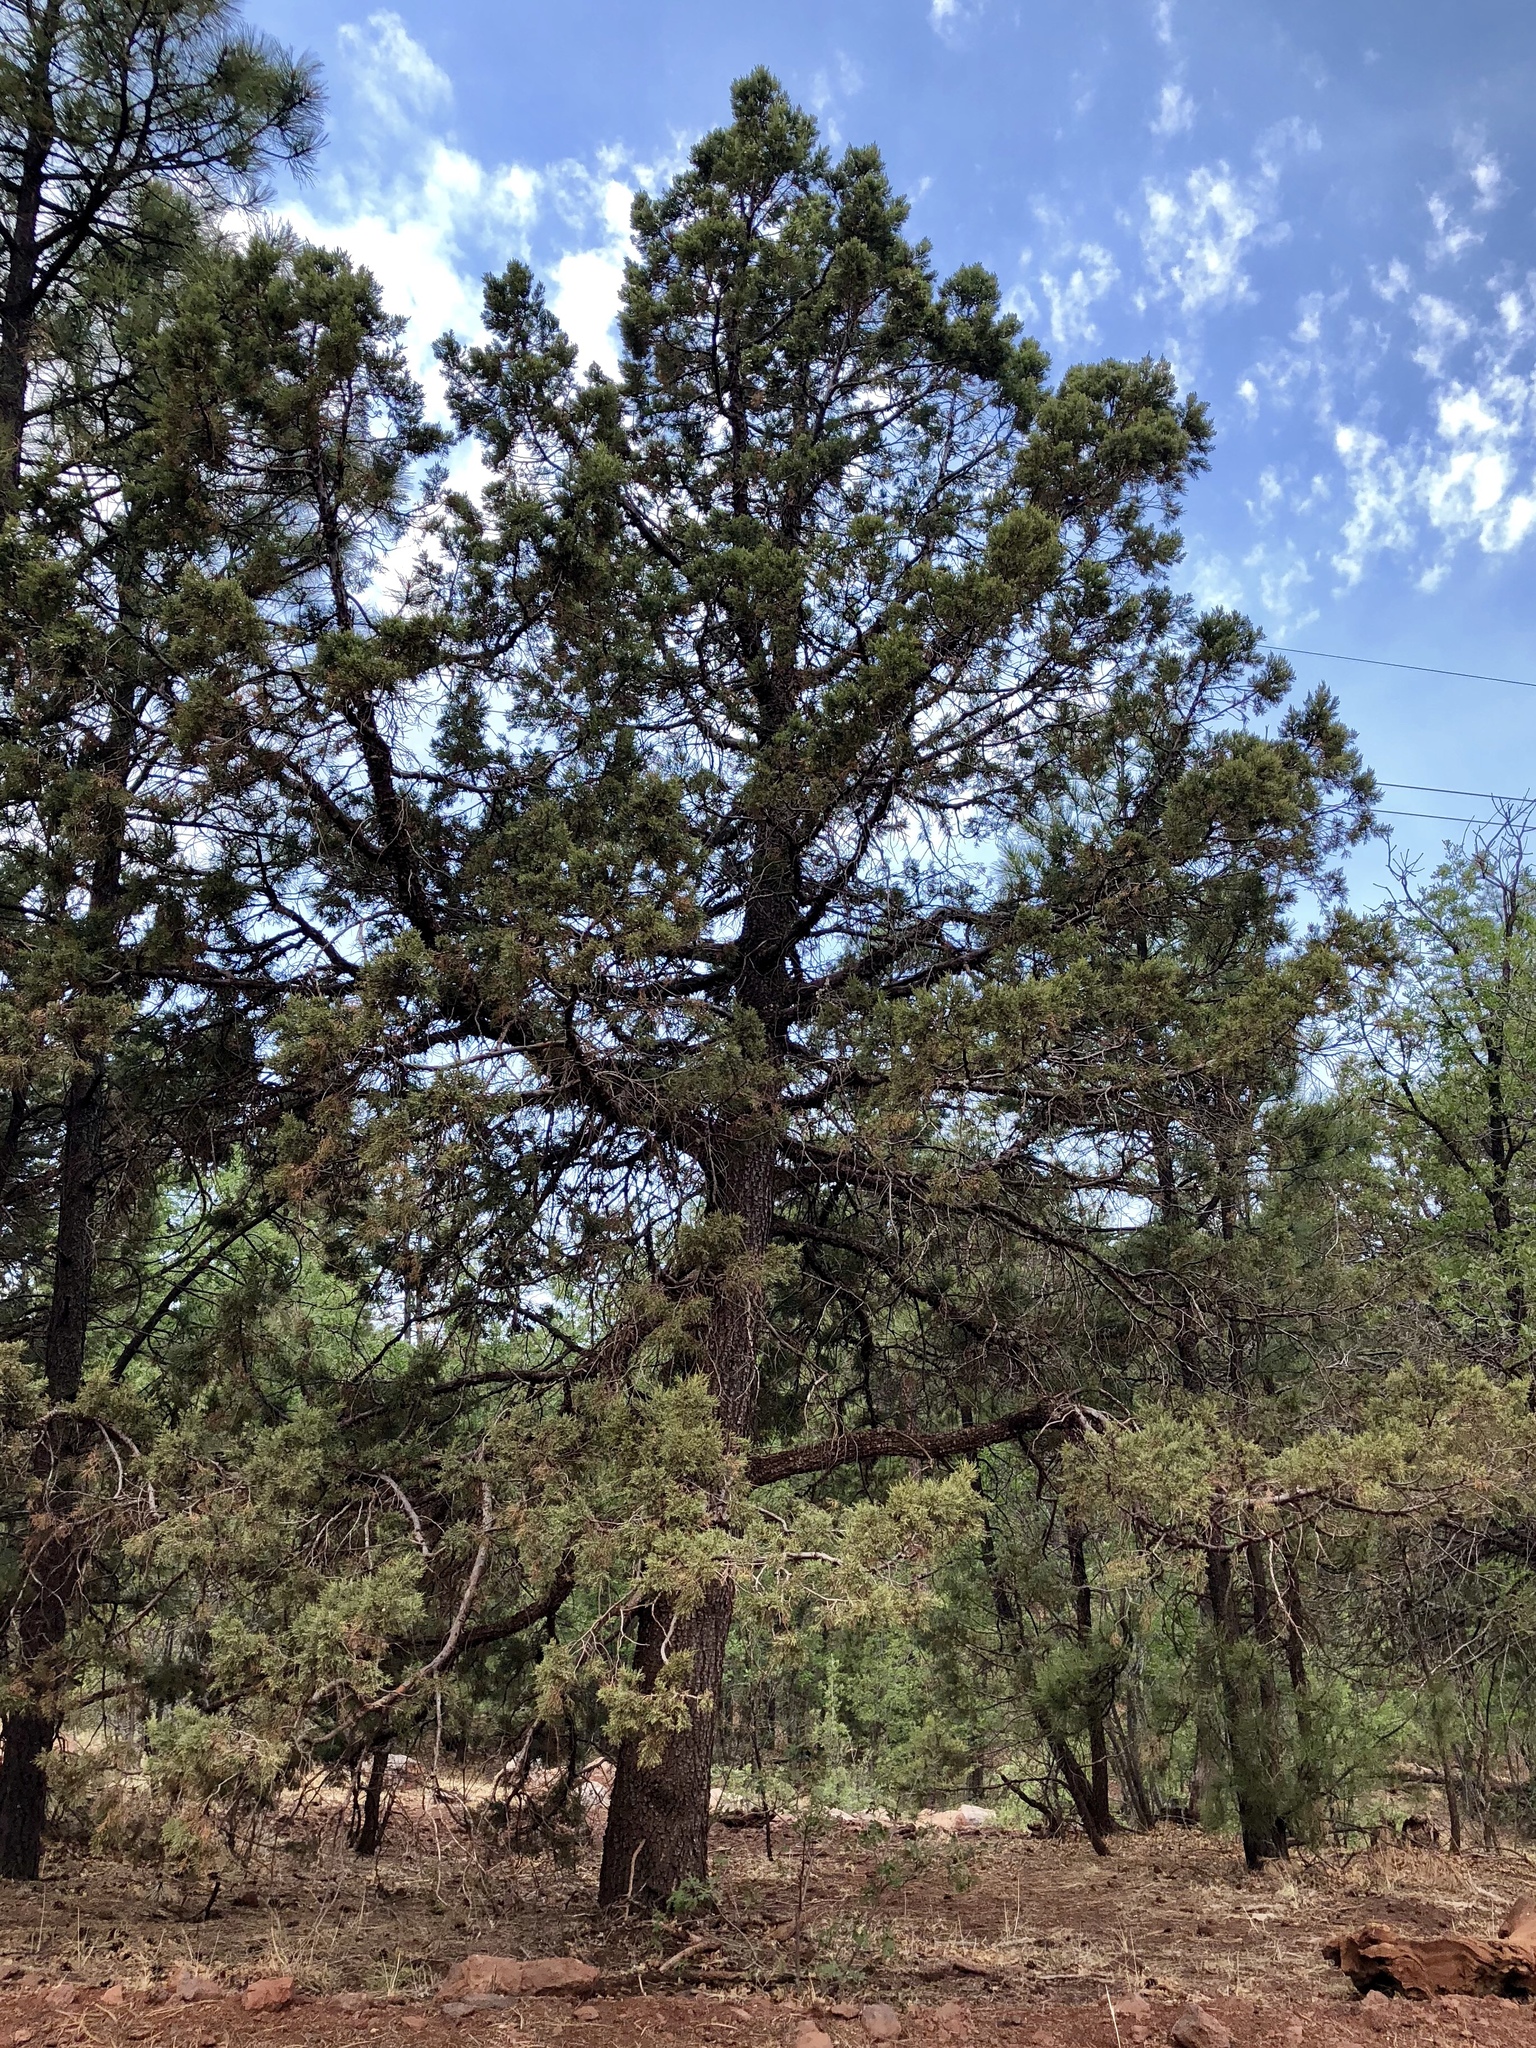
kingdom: Plantae
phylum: Tracheophyta
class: Pinopsida
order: Pinales
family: Cupressaceae
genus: Juniperus
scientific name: Juniperus deppeana
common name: Alligator juniper
